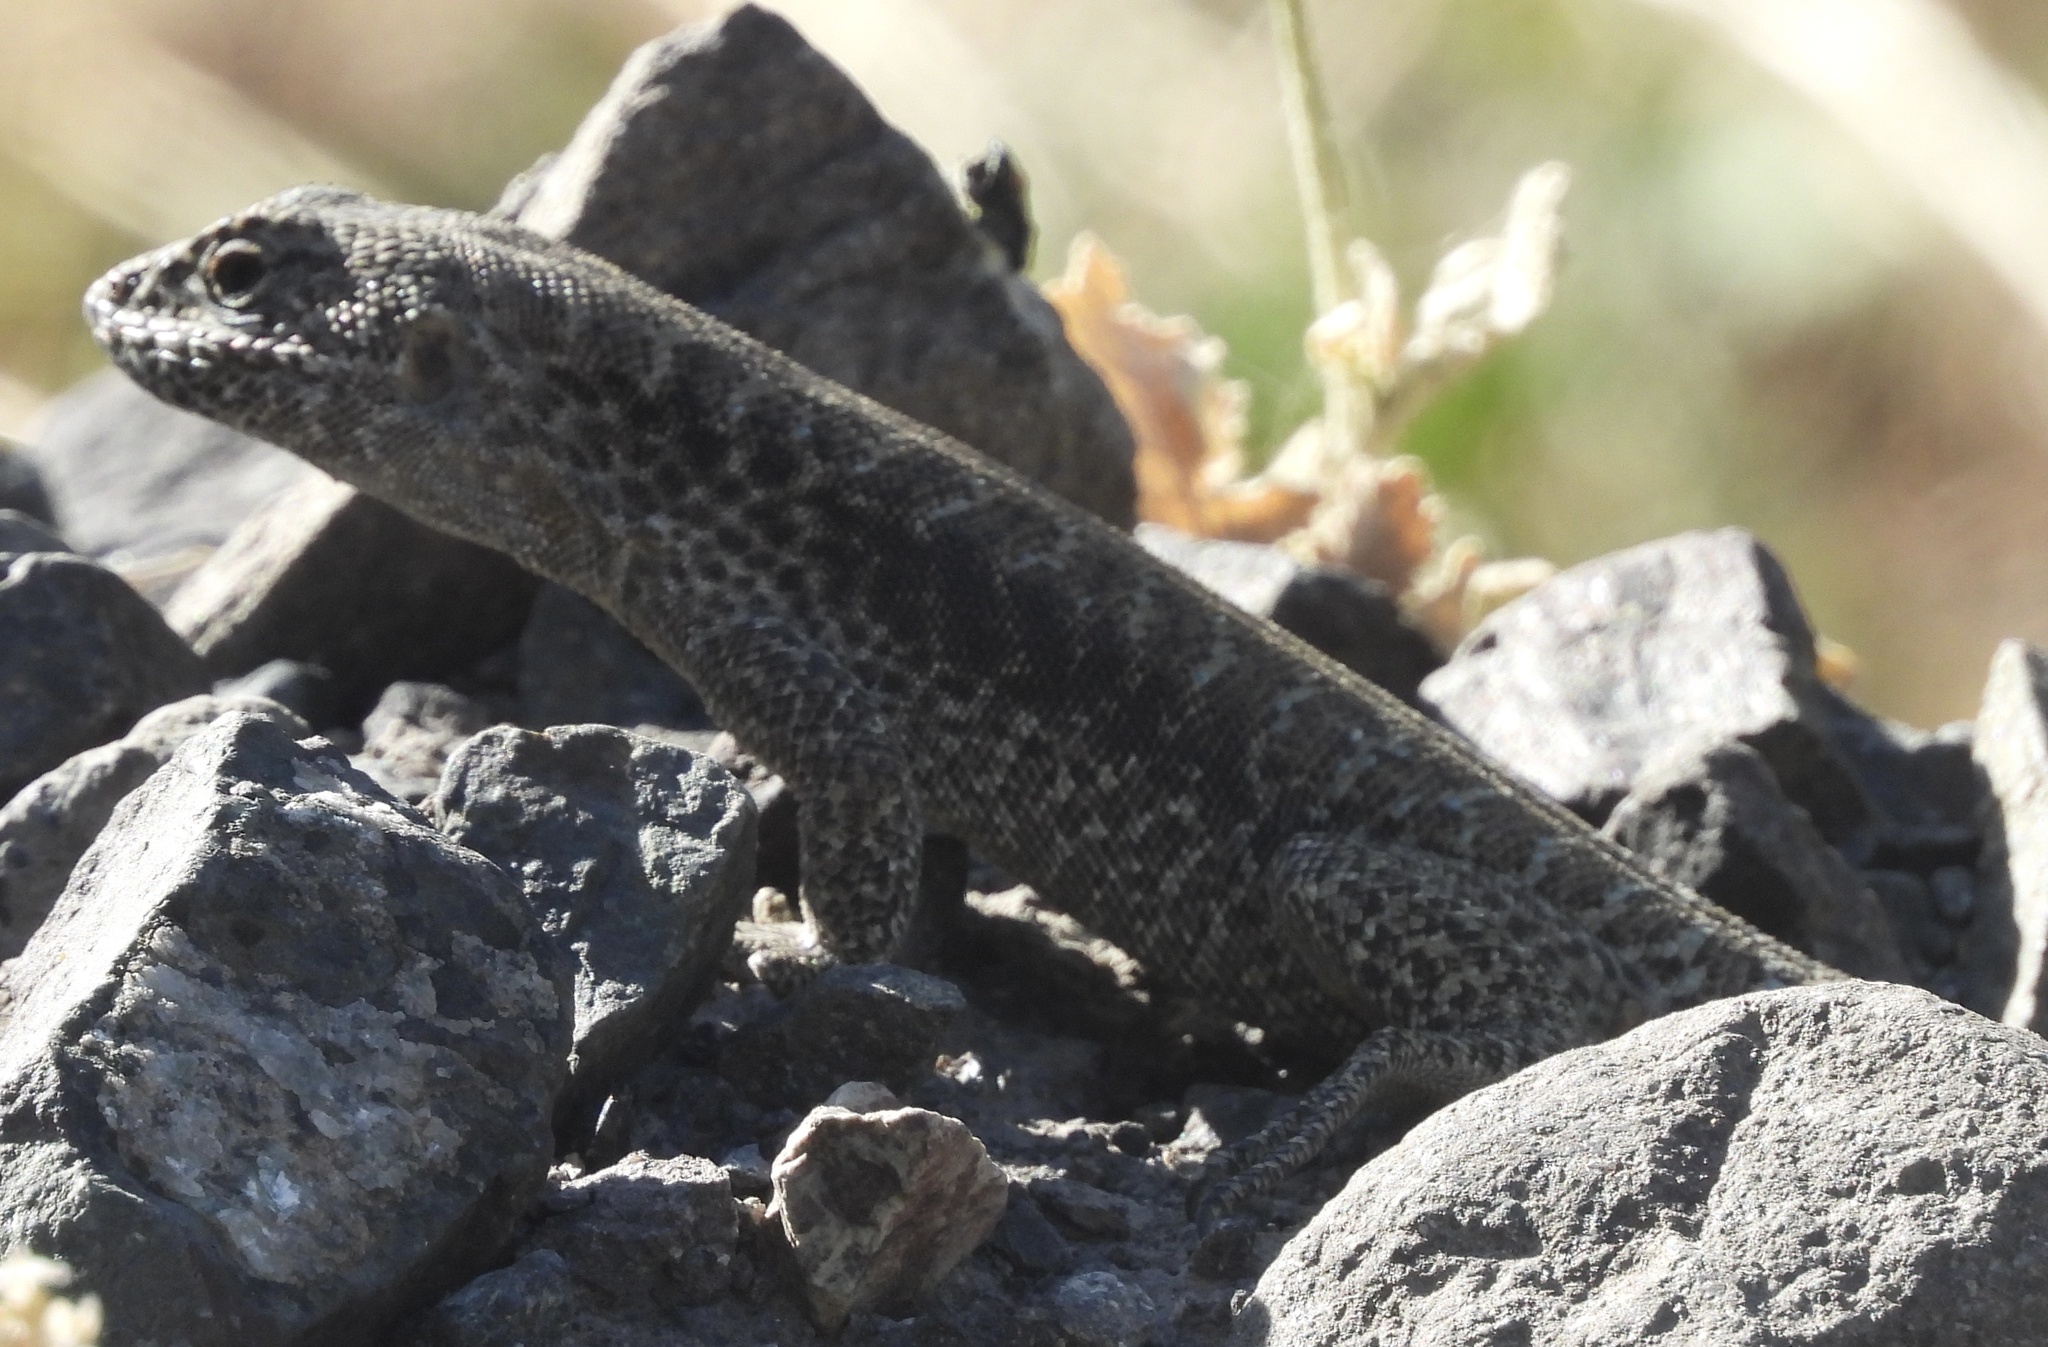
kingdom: Animalia
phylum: Chordata
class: Squamata
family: Liolaemidae
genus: Liolaemus
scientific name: Liolaemus valdesianus
